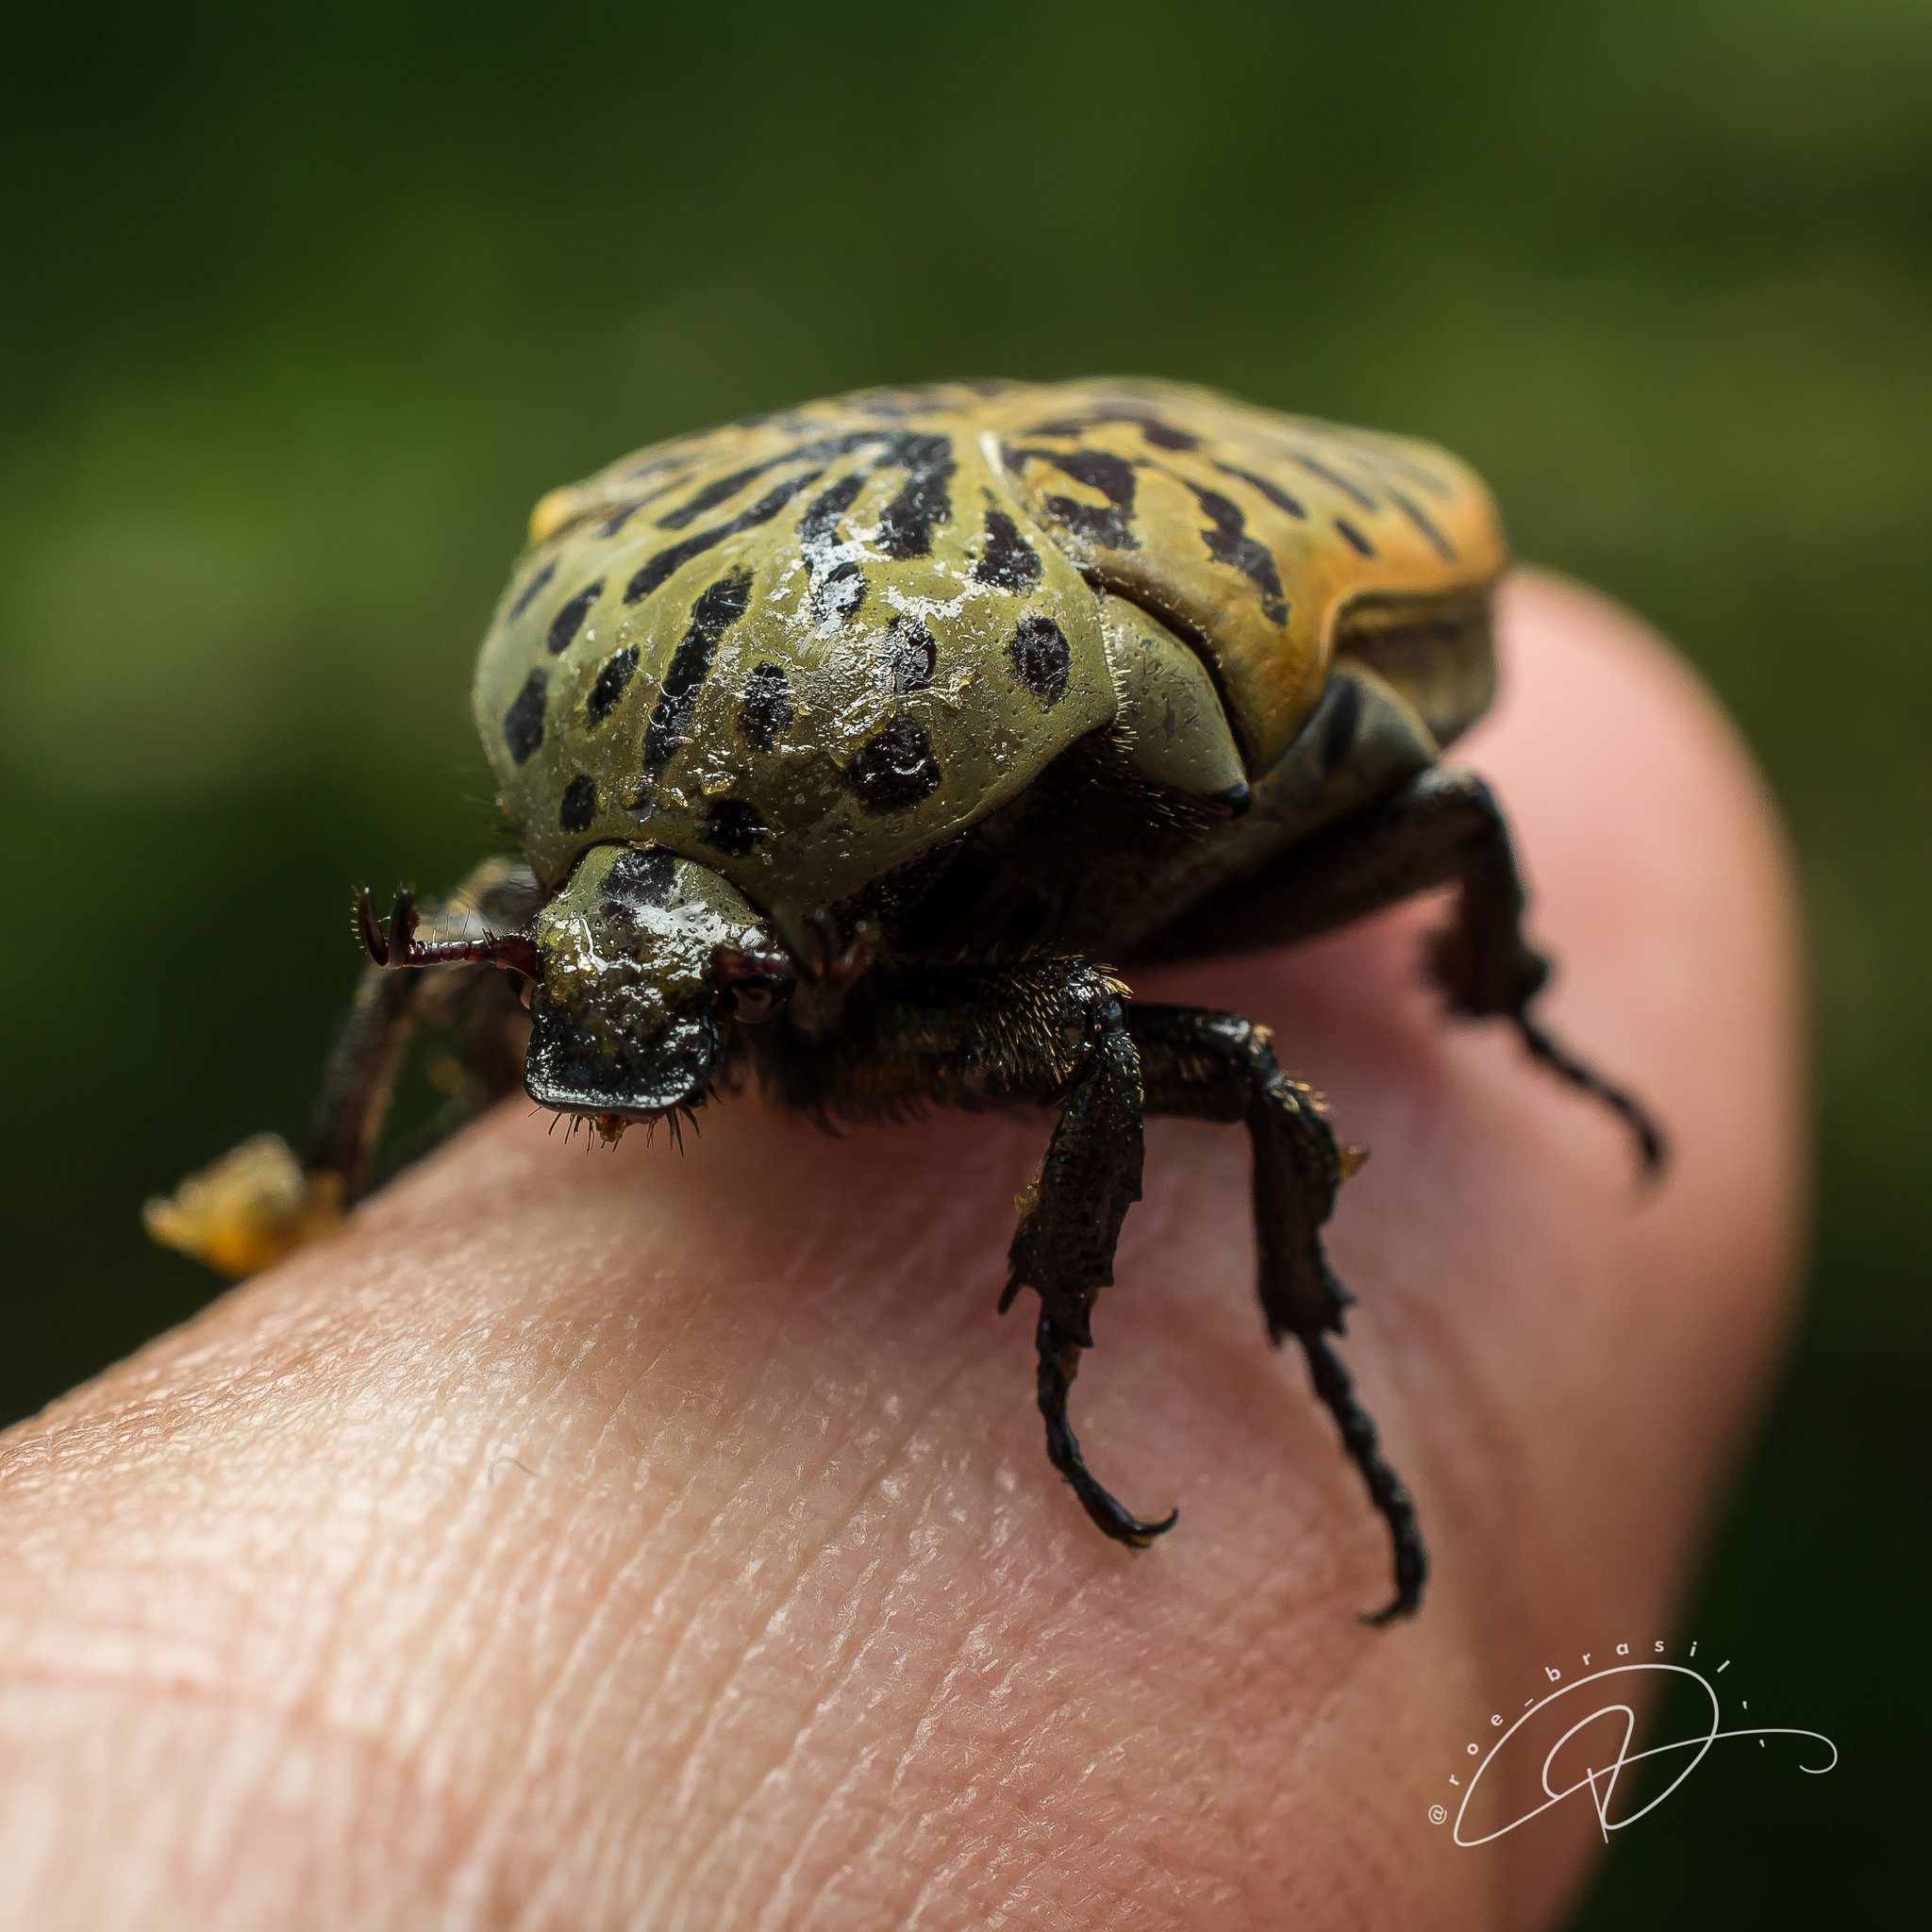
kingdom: Animalia
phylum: Arthropoda
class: Insecta
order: Coleoptera
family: Scarabaeidae
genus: Gymnetis
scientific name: Gymnetis pantherina
